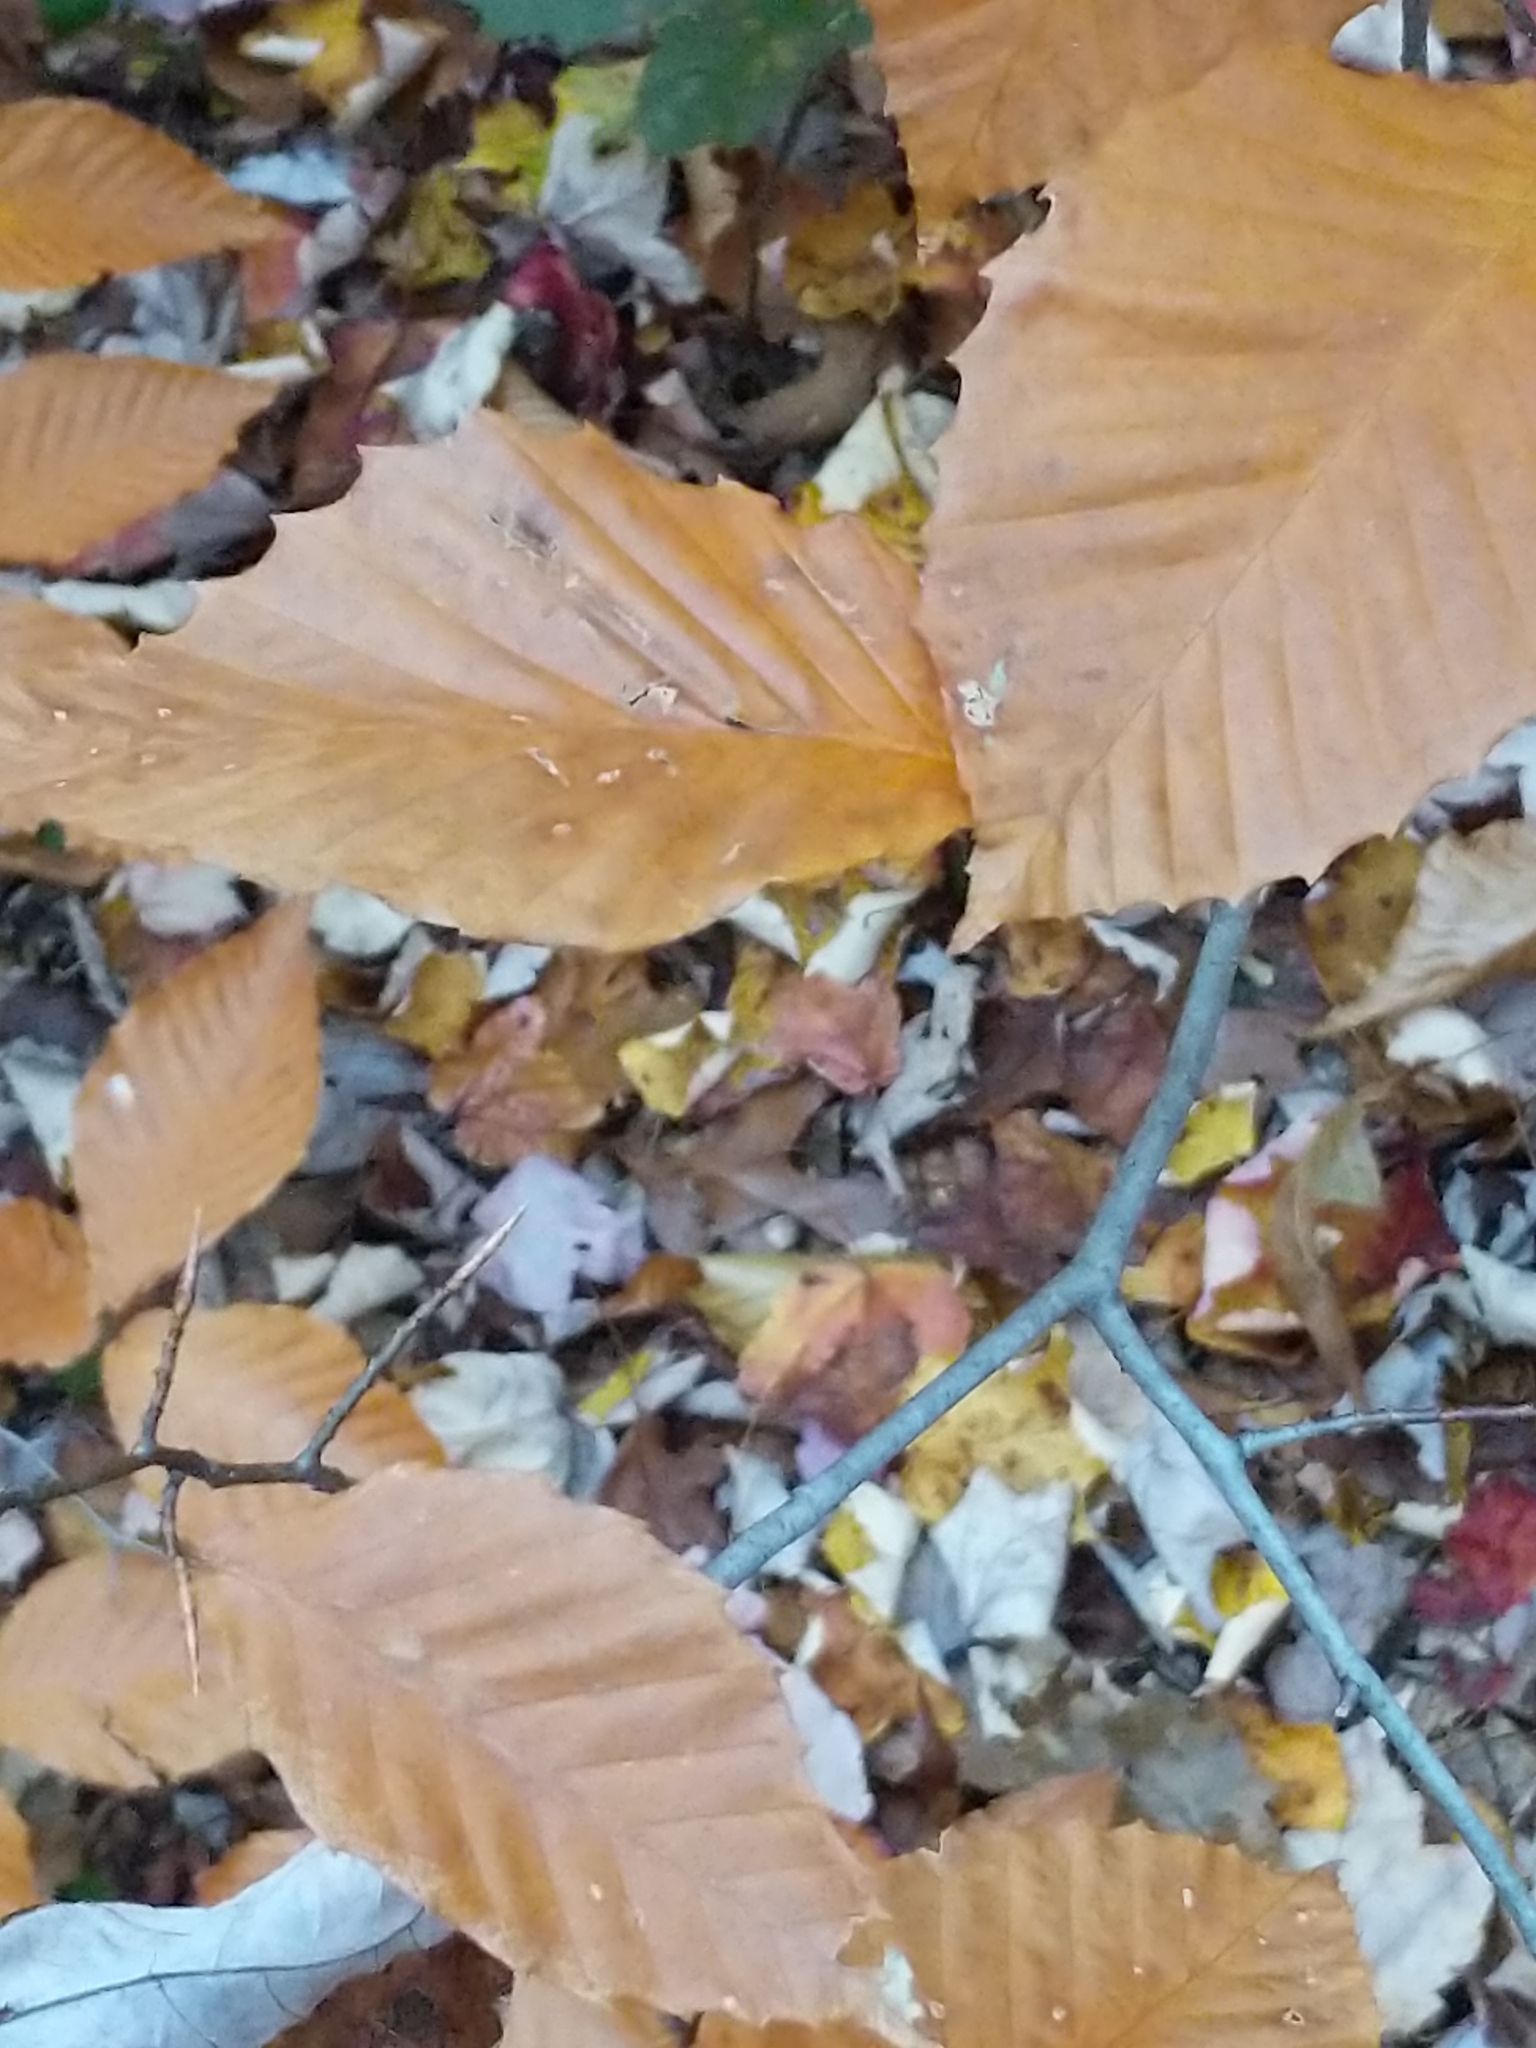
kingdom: Plantae
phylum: Tracheophyta
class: Magnoliopsida
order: Fagales
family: Fagaceae
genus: Fagus
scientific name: Fagus grandifolia
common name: American beech
